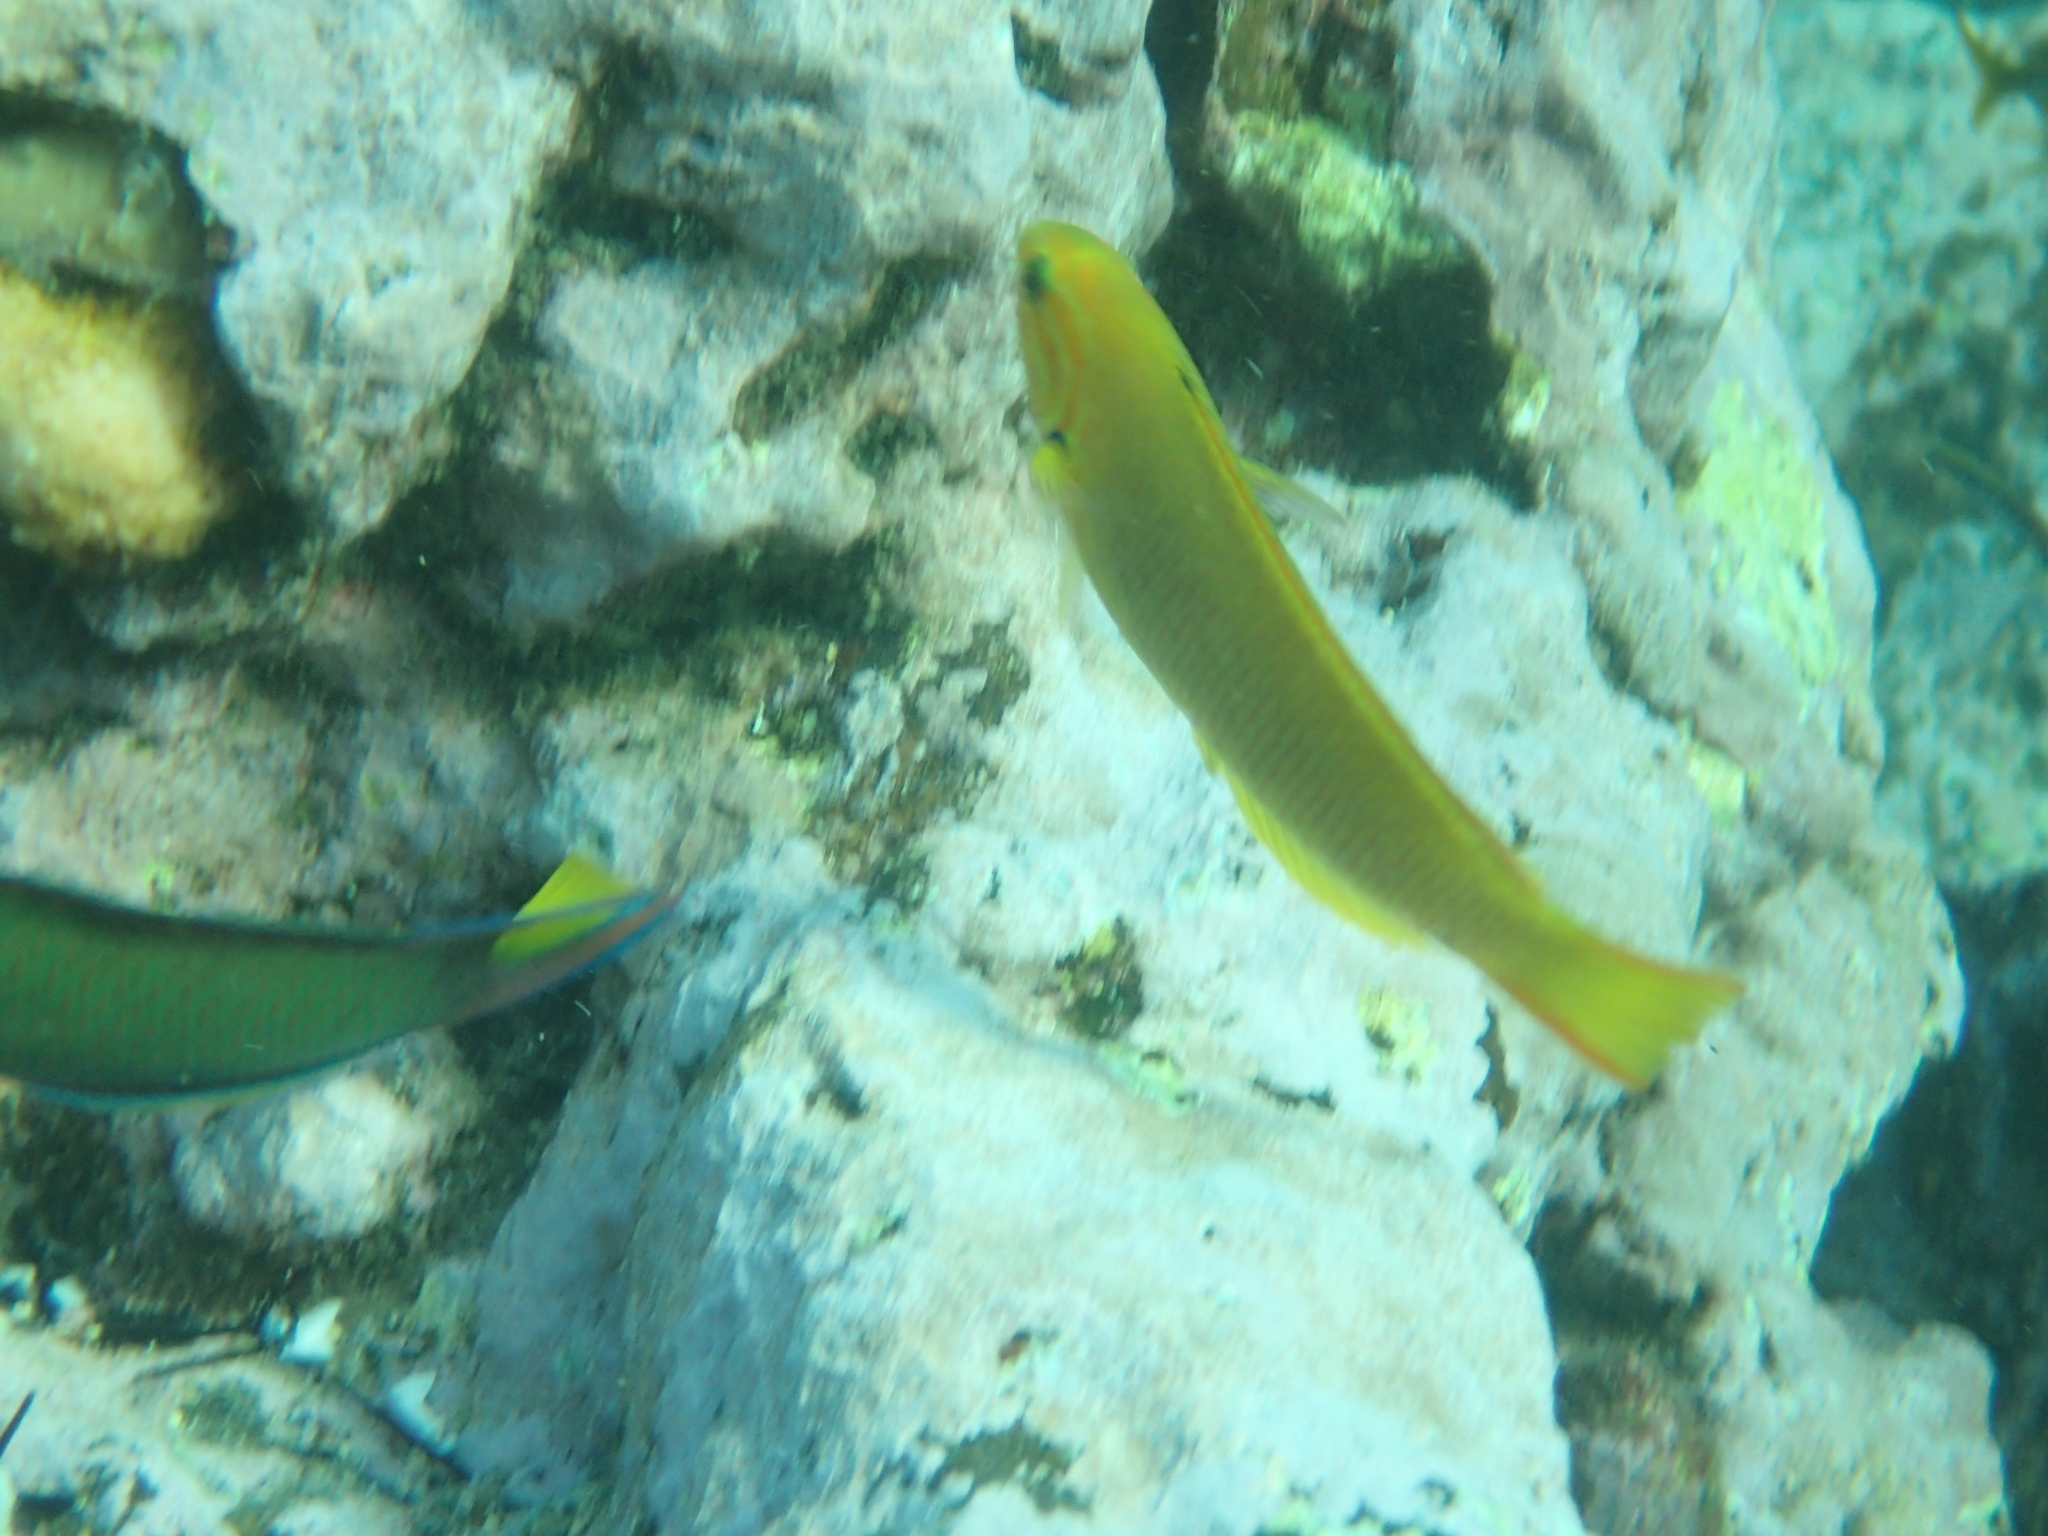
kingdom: Animalia
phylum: Chordata
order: Perciformes
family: Labridae
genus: Thalassoma
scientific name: Thalassoma lutescens
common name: Green moon wrasse
